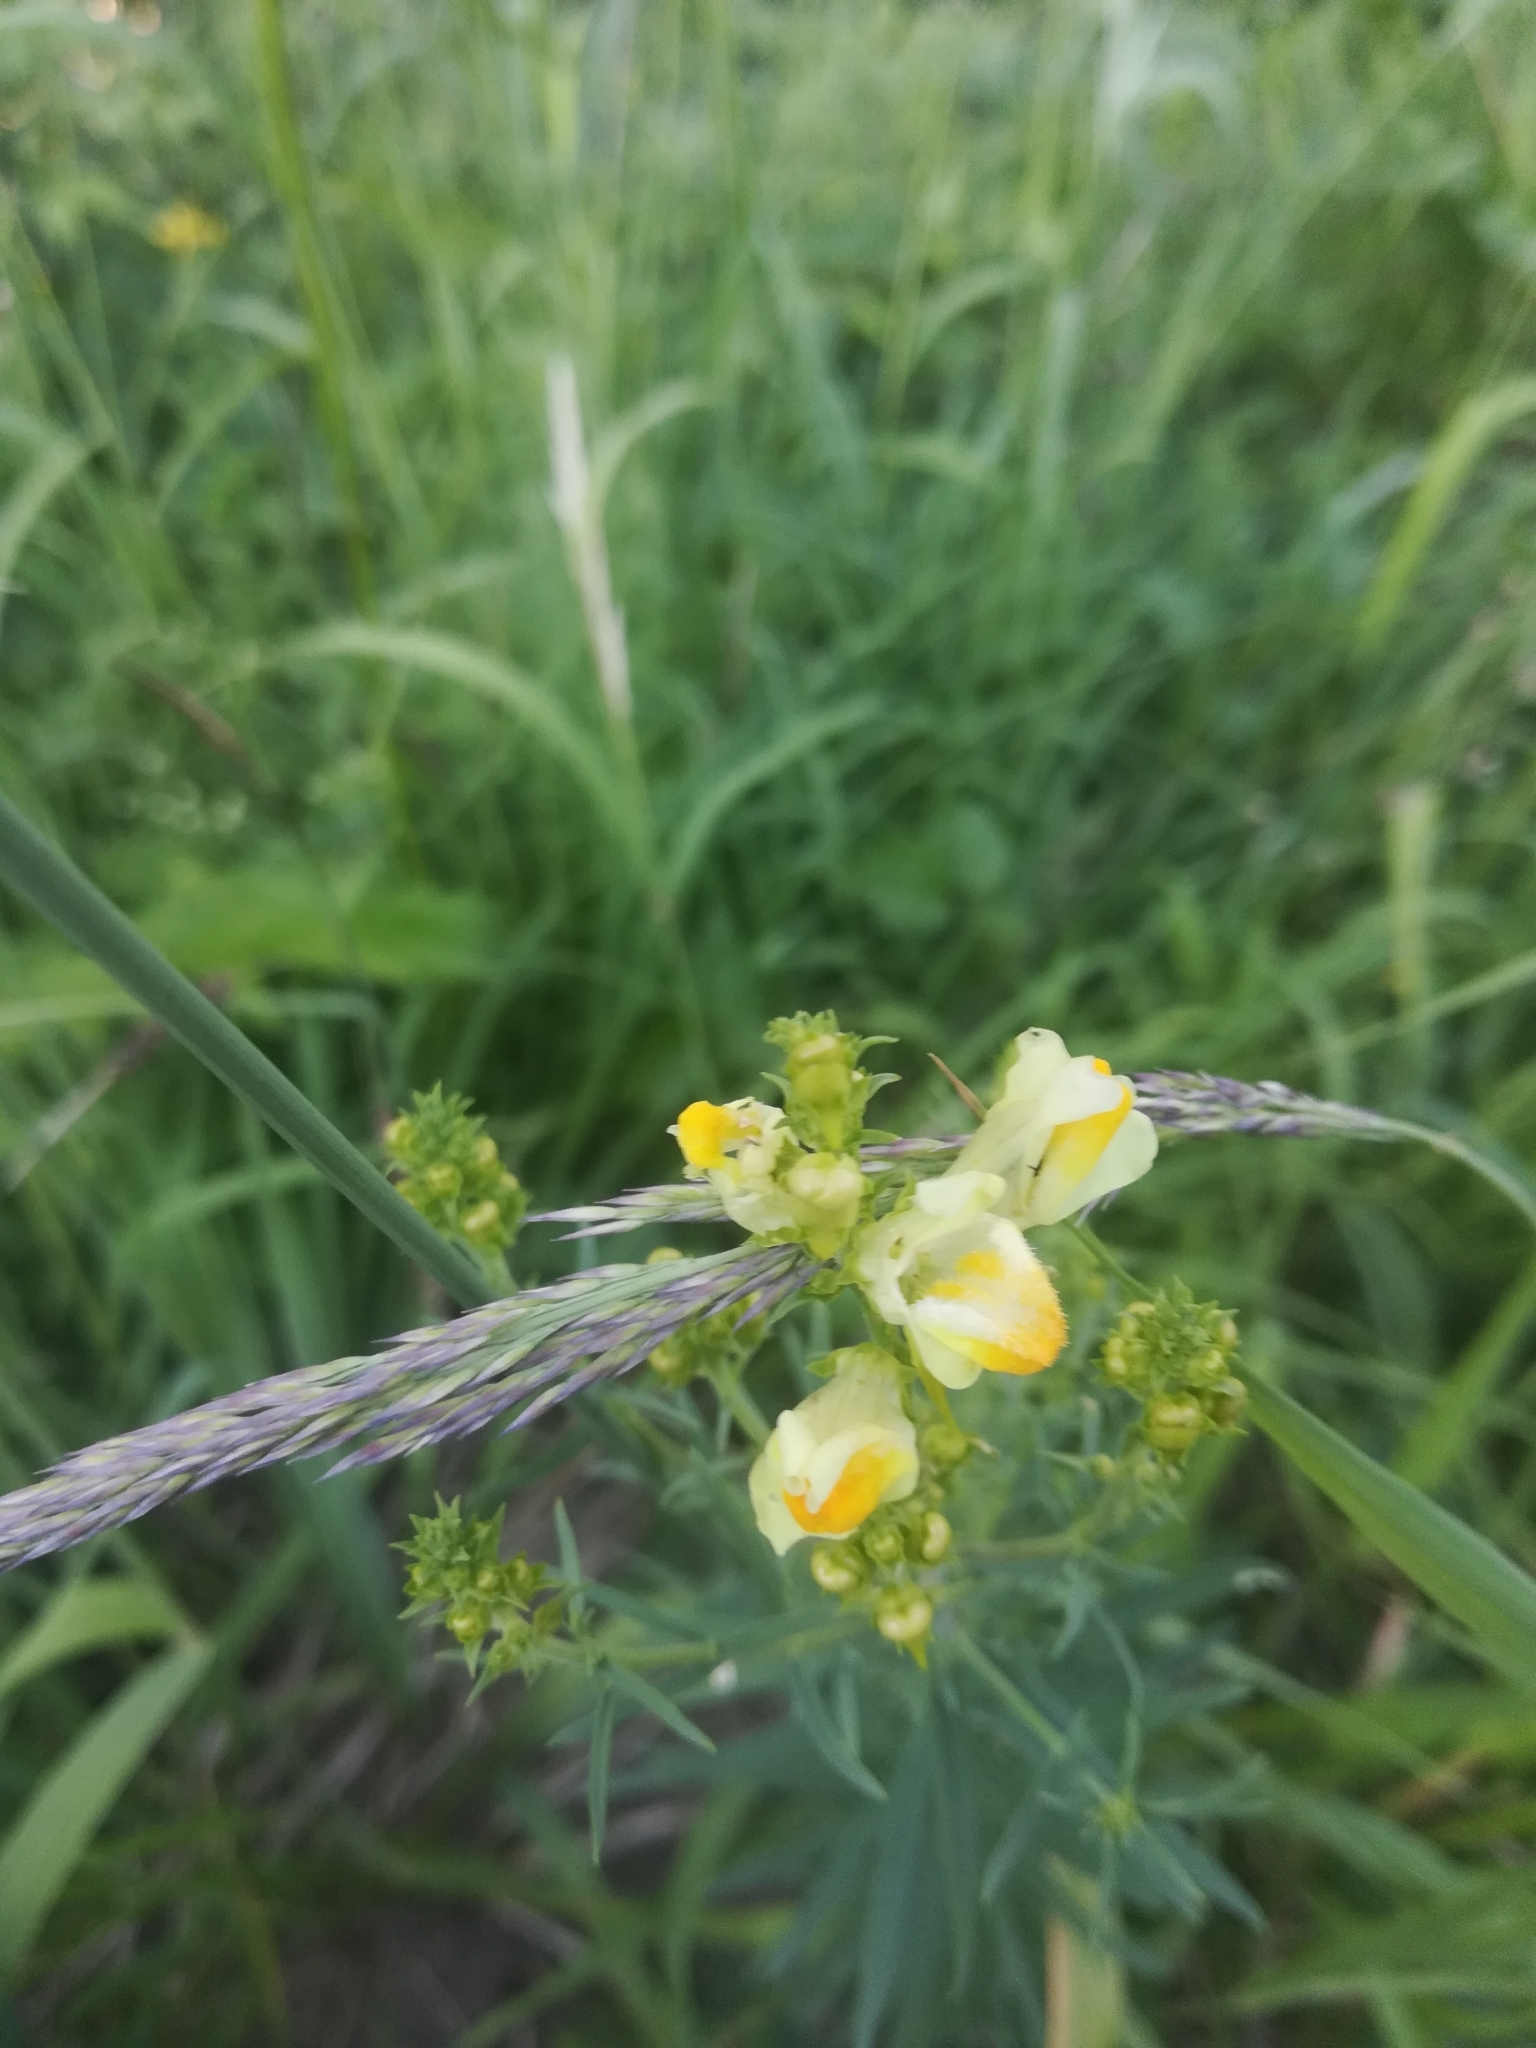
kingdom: Plantae
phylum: Tracheophyta
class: Magnoliopsida
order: Lamiales
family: Plantaginaceae
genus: Linaria
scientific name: Linaria vulgaris
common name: Butter and eggs
